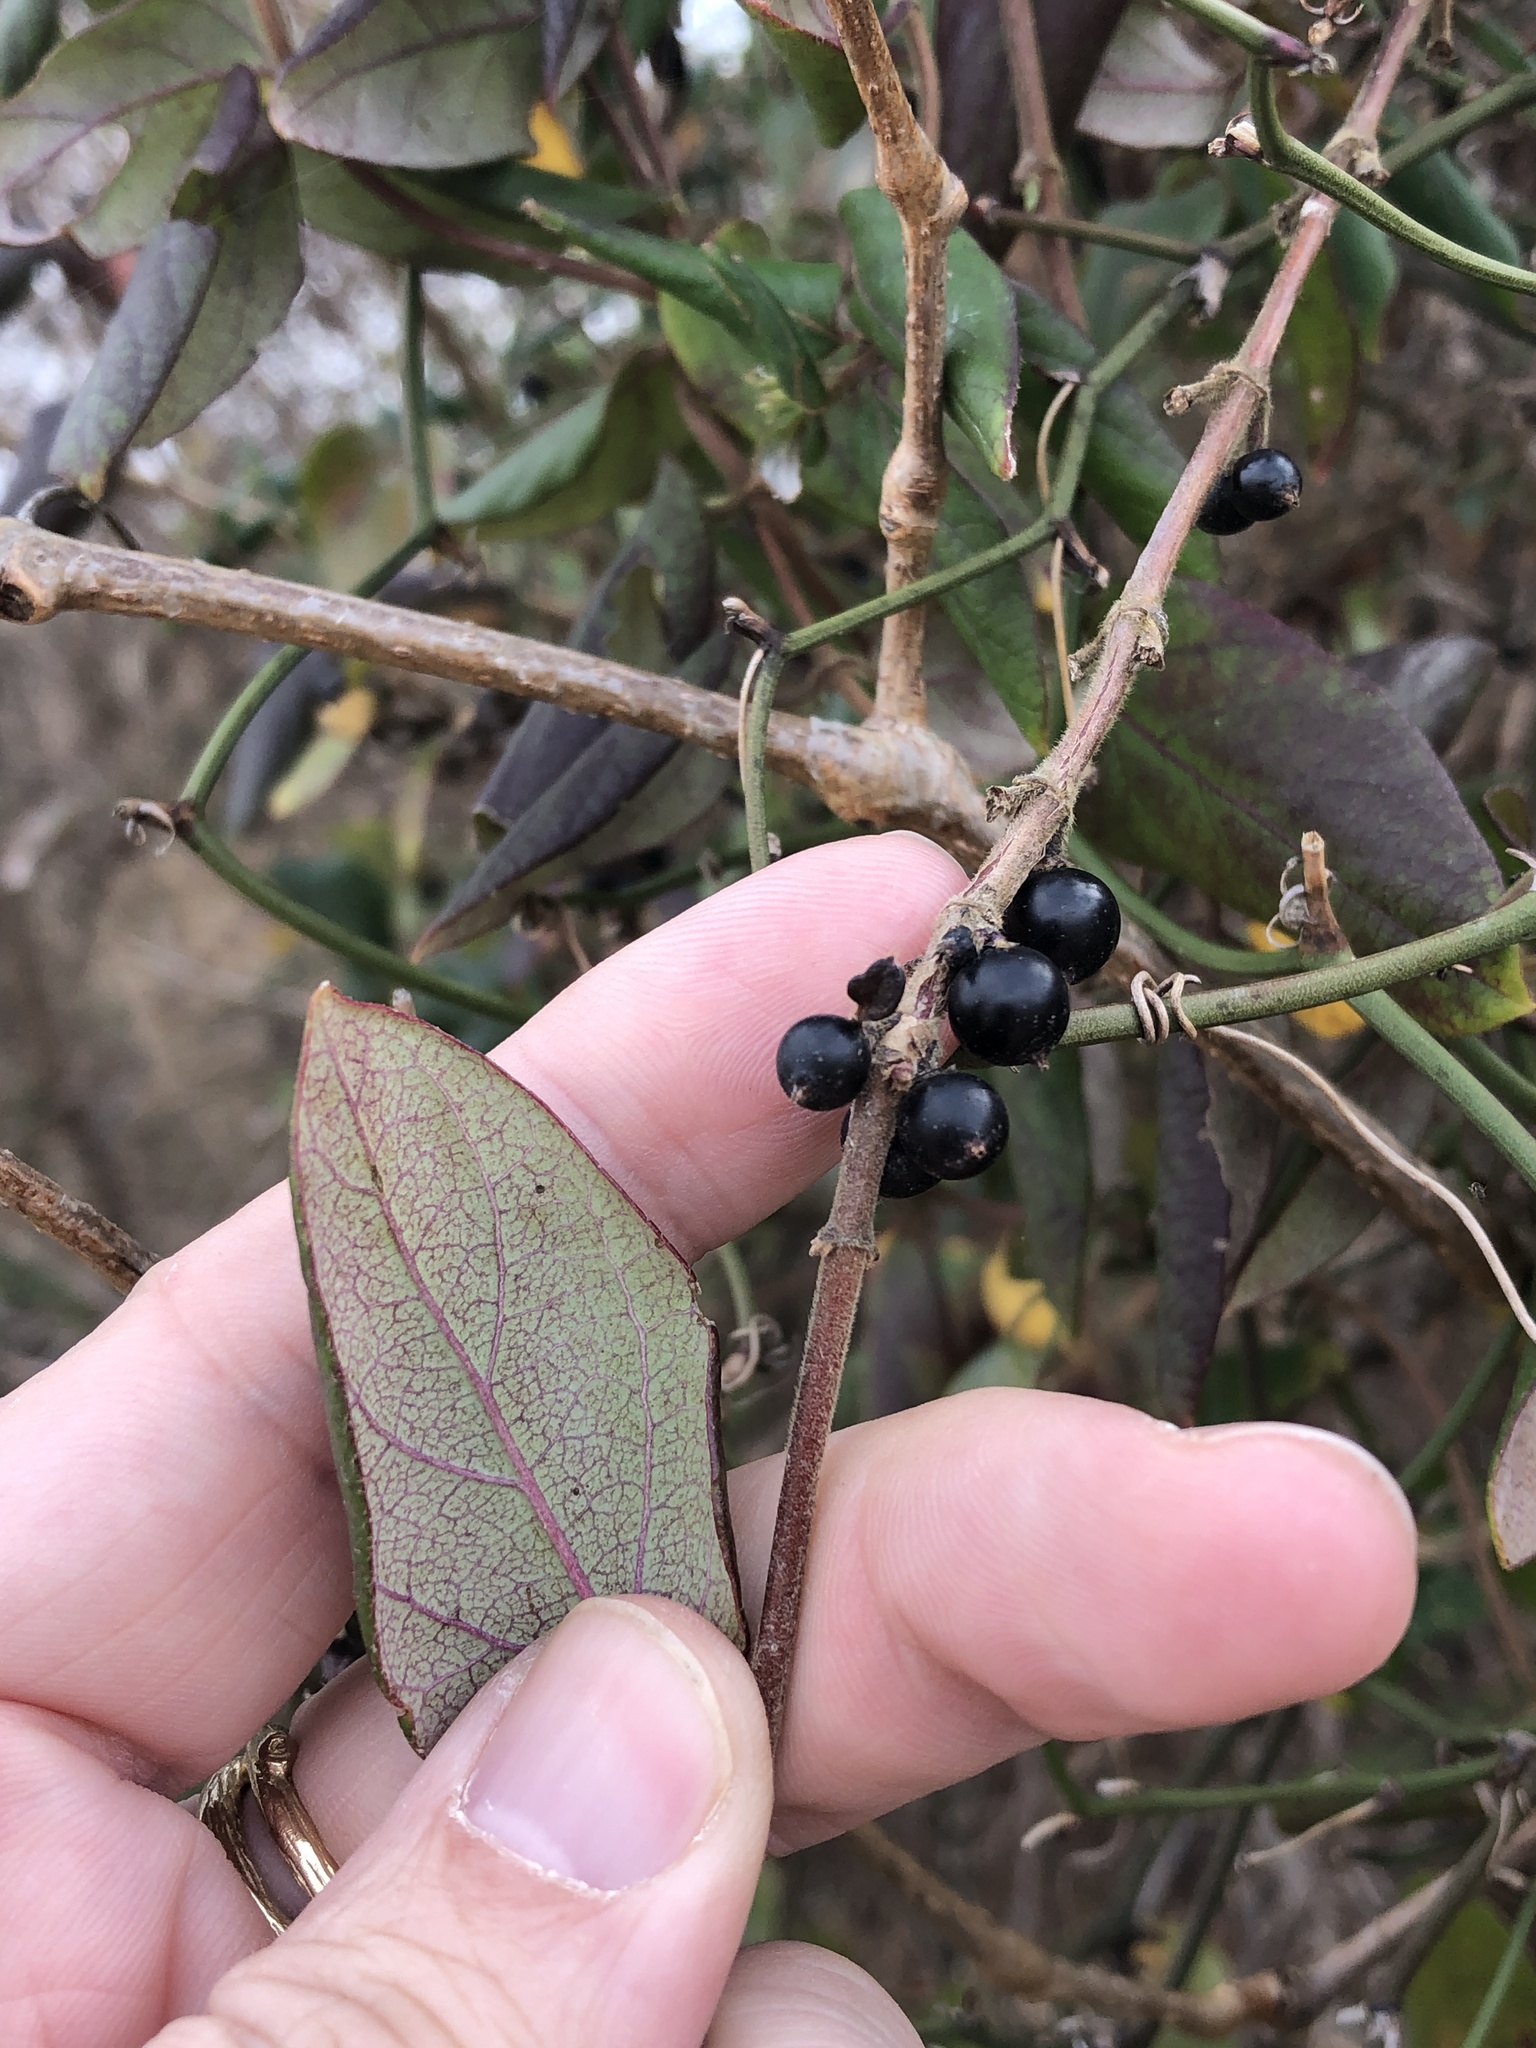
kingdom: Plantae
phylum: Tracheophyta
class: Magnoliopsida
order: Dipsacales
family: Caprifoliaceae
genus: Lonicera
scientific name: Lonicera japonica
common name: Japanese honeysuckle
